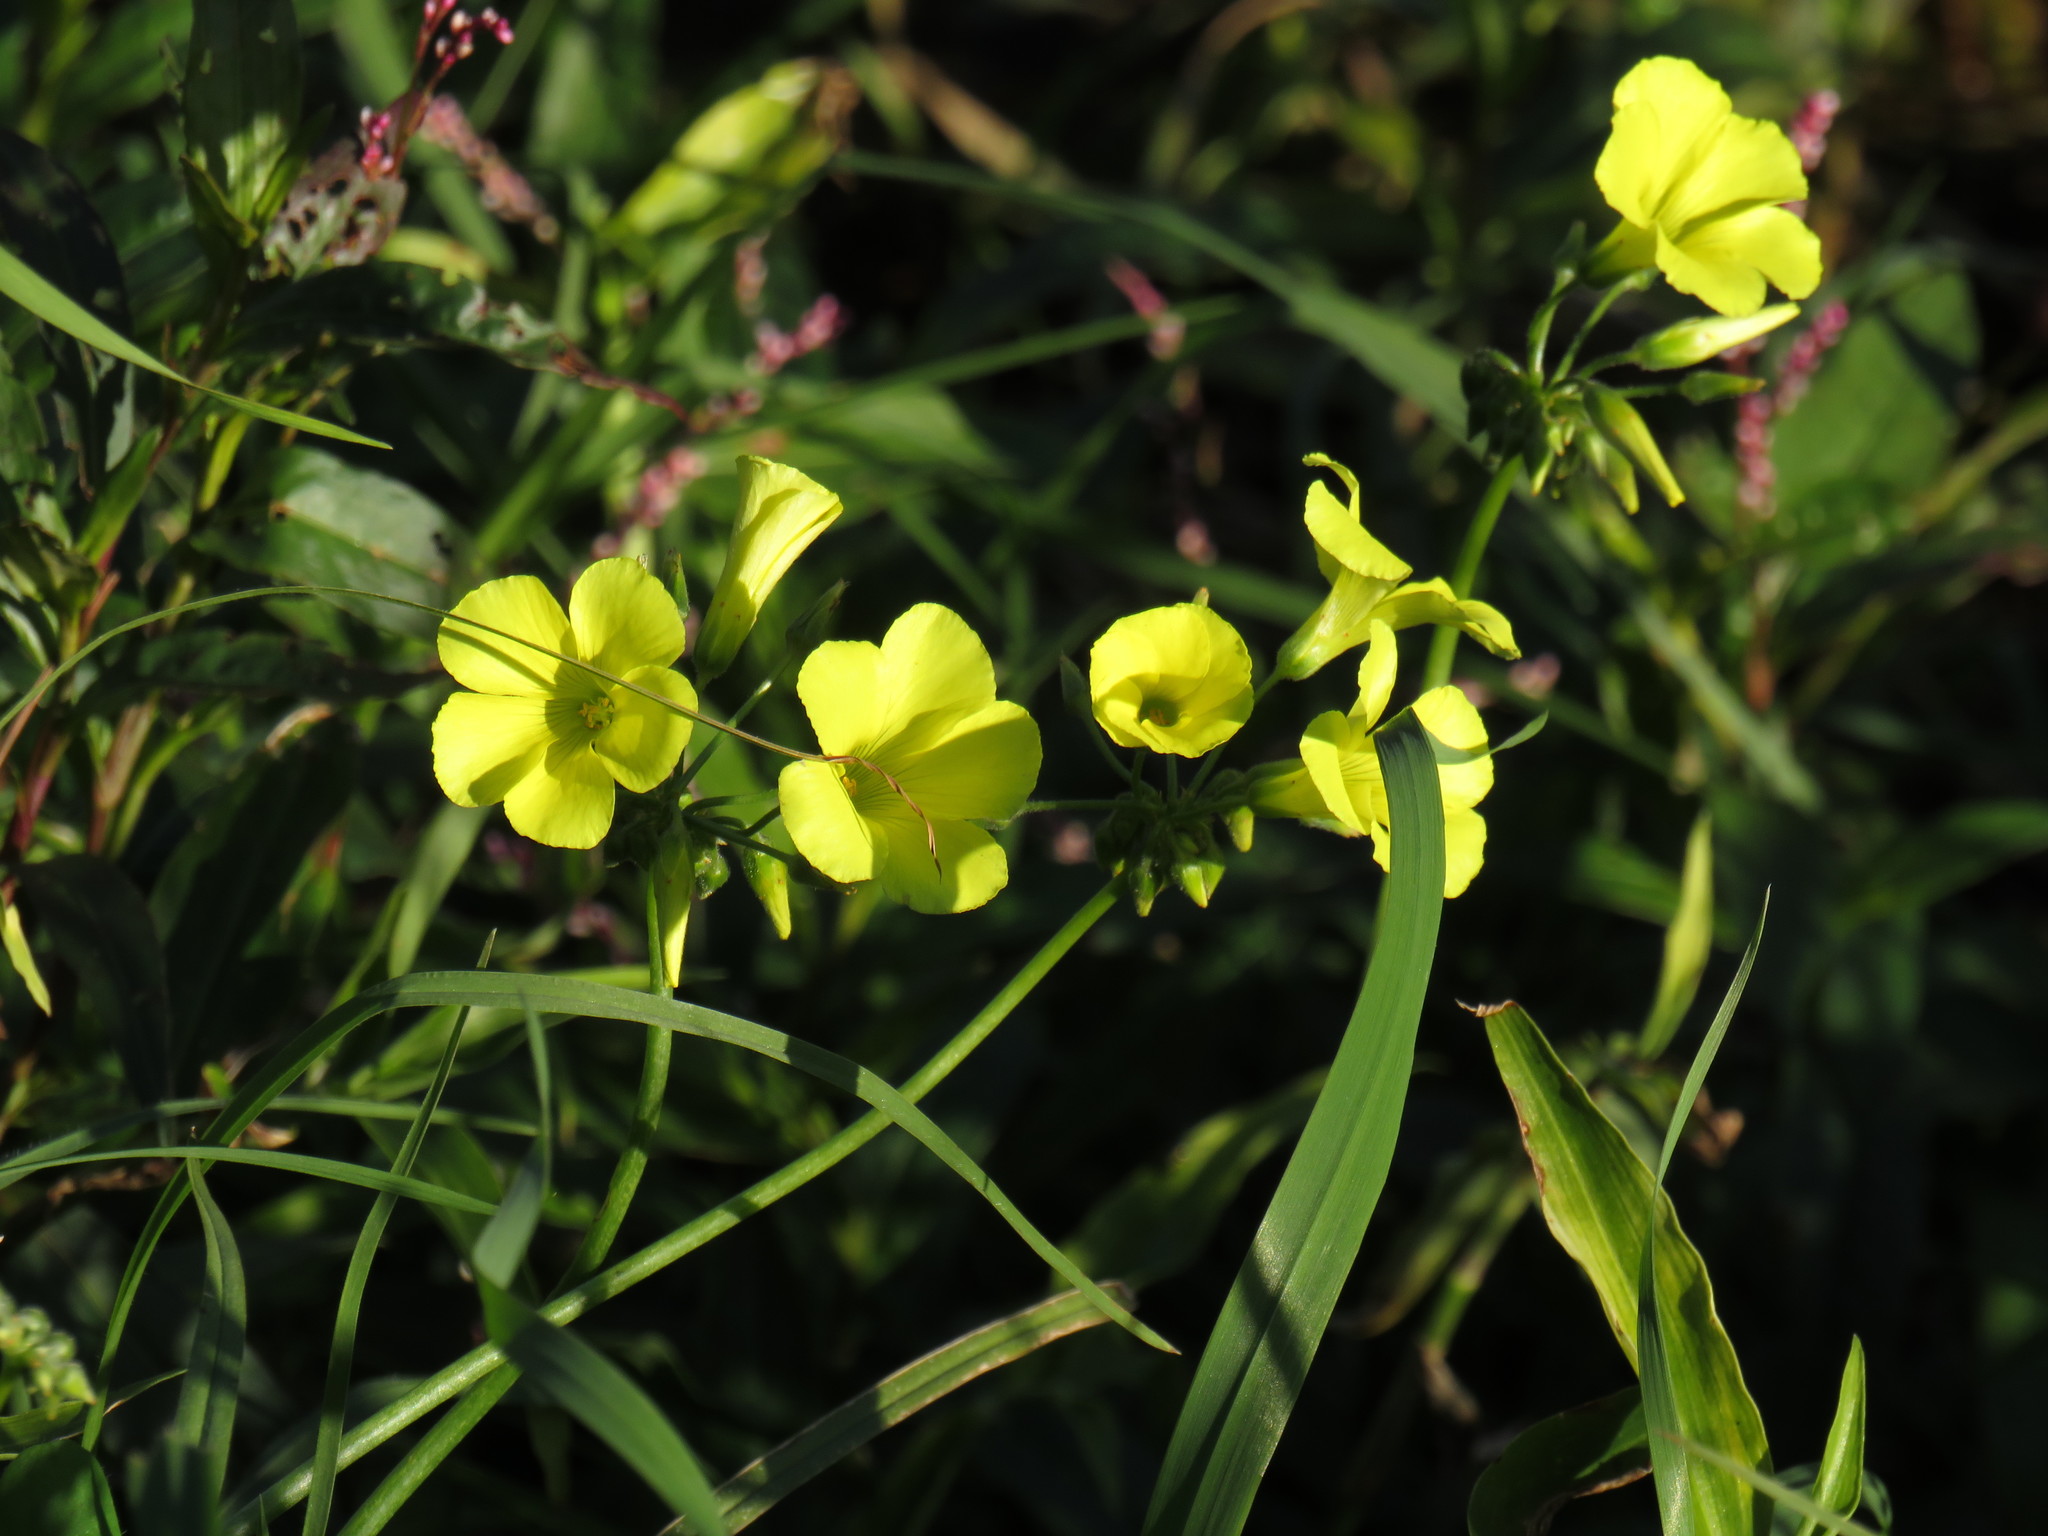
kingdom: Plantae
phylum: Tracheophyta
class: Magnoliopsida
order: Oxalidales
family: Oxalidaceae
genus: Oxalis
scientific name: Oxalis pes-caprae
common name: Bermuda-buttercup
